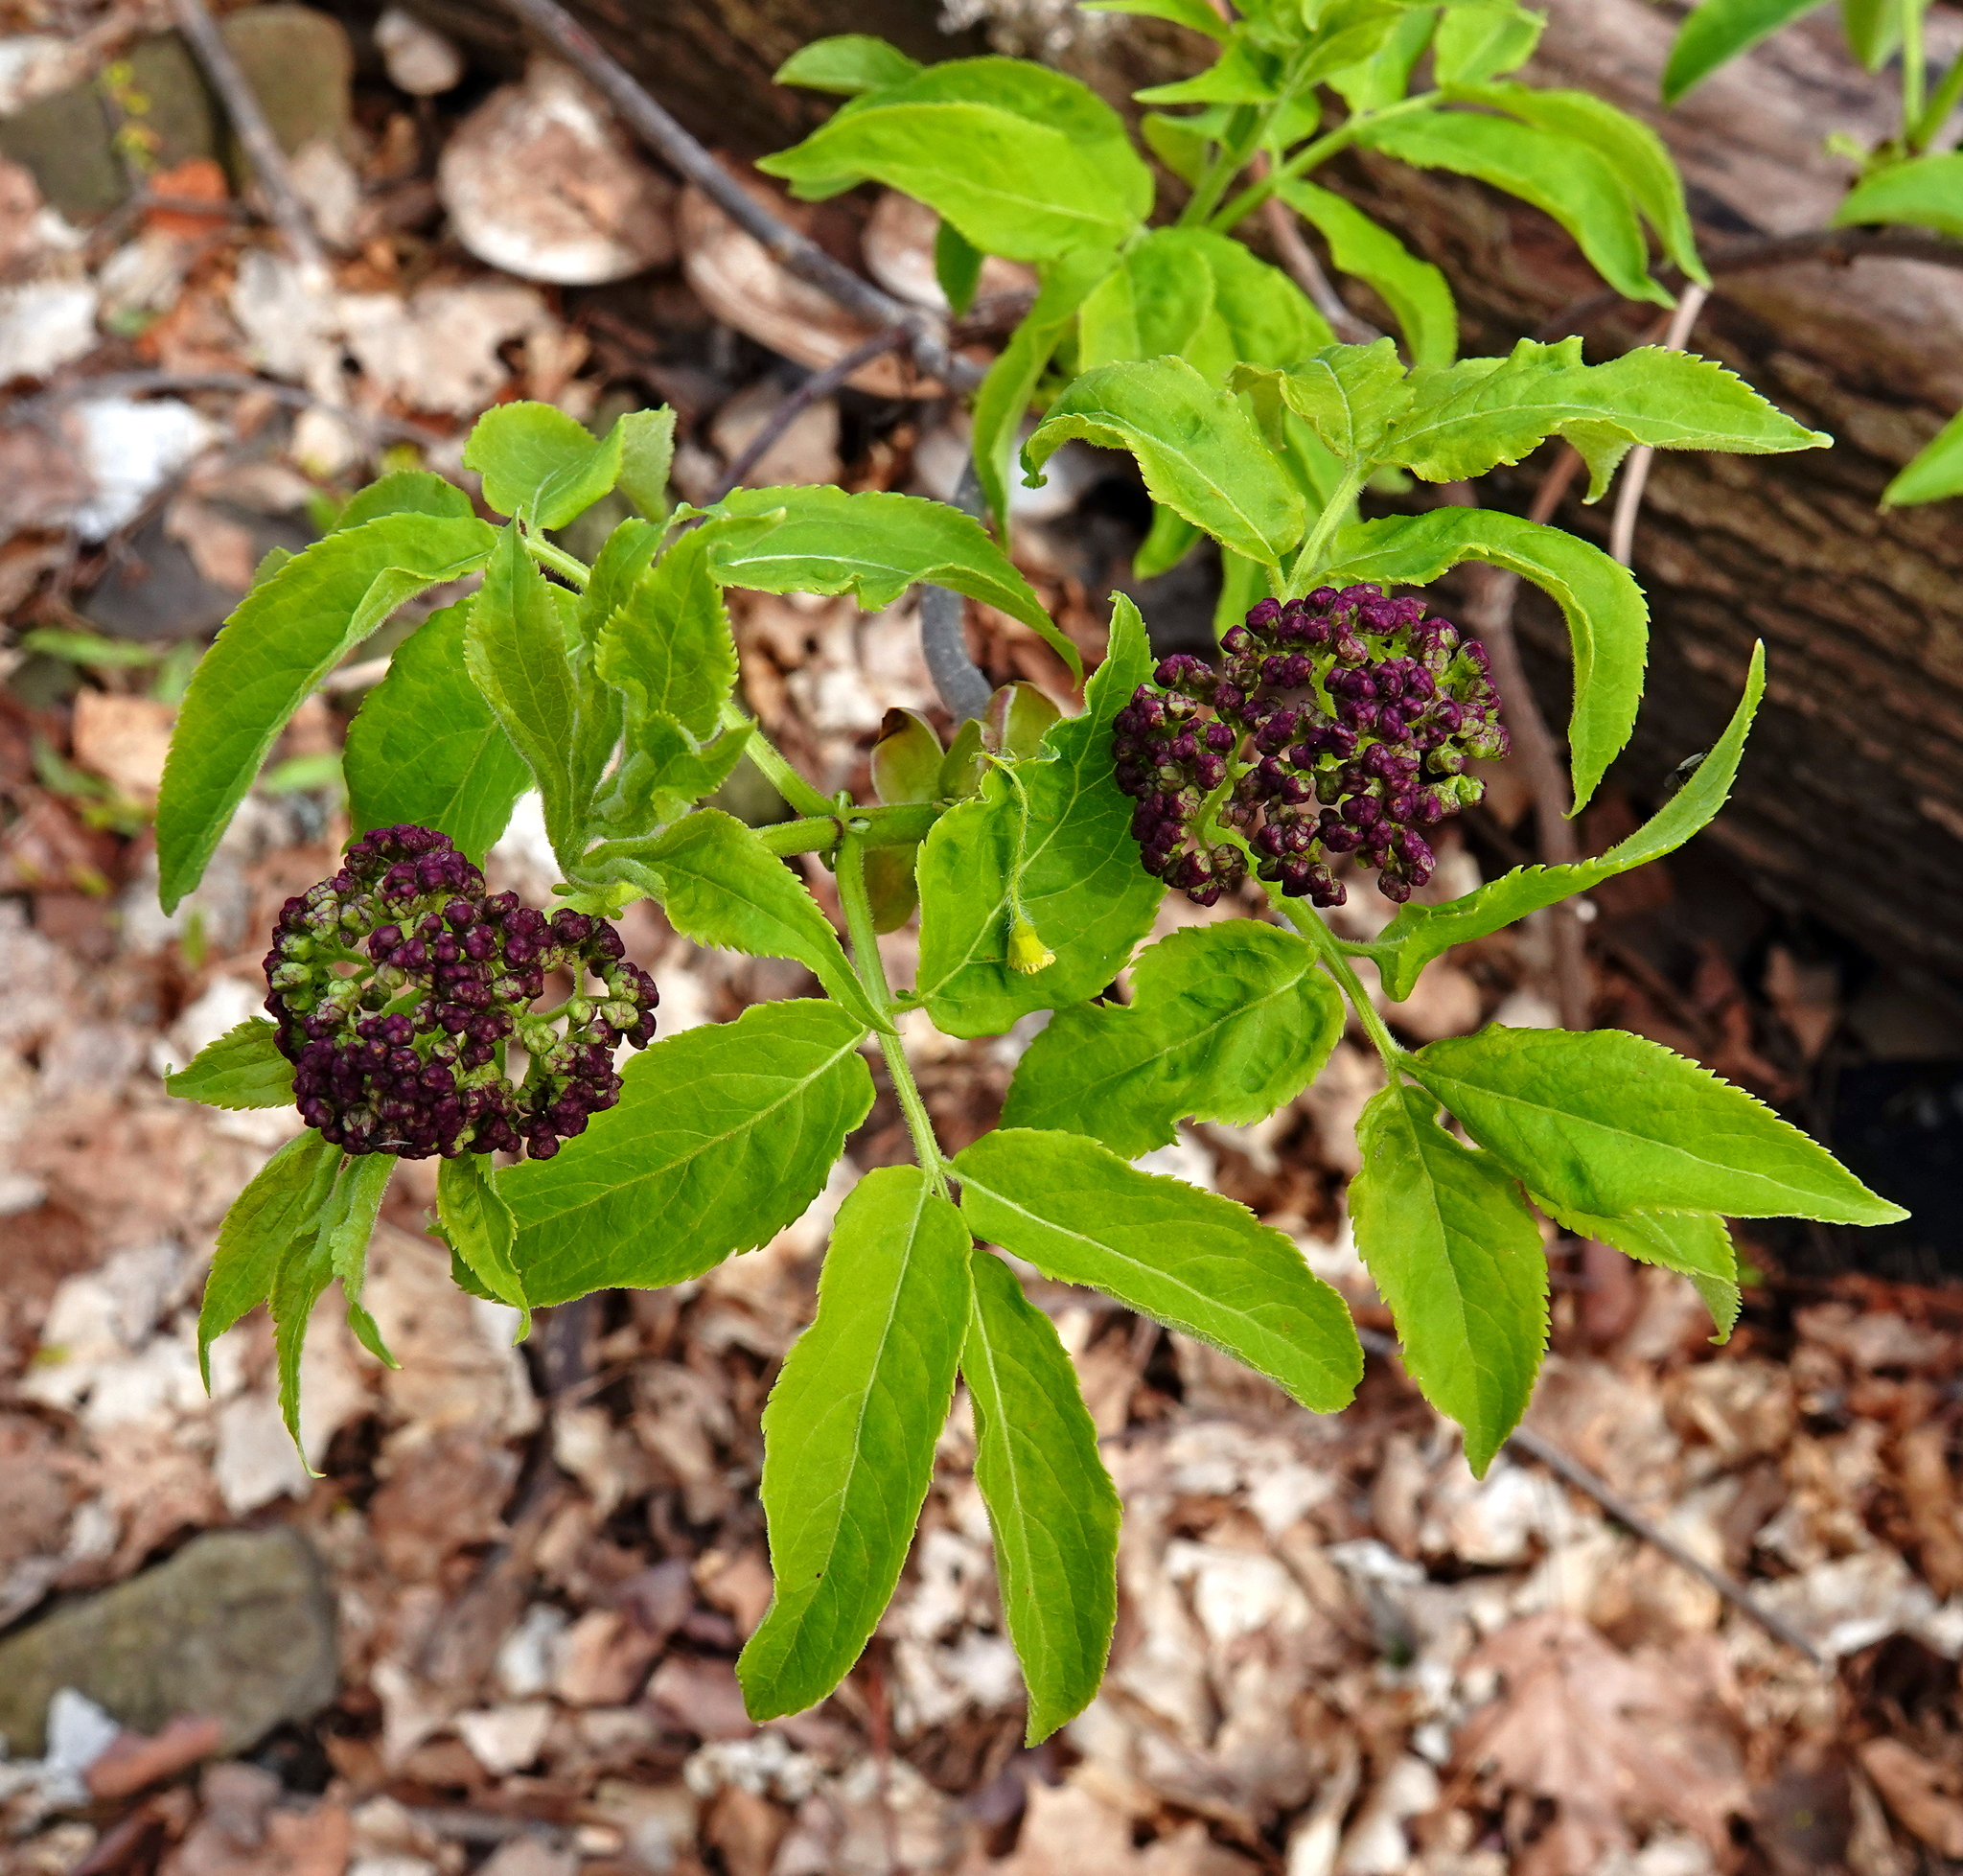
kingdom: Plantae
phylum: Tracheophyta
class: Magnoliopsida
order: Dipsacales
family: Viburnaceae
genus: Sambucus
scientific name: Sambucus racemosa
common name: Red-berried elder
